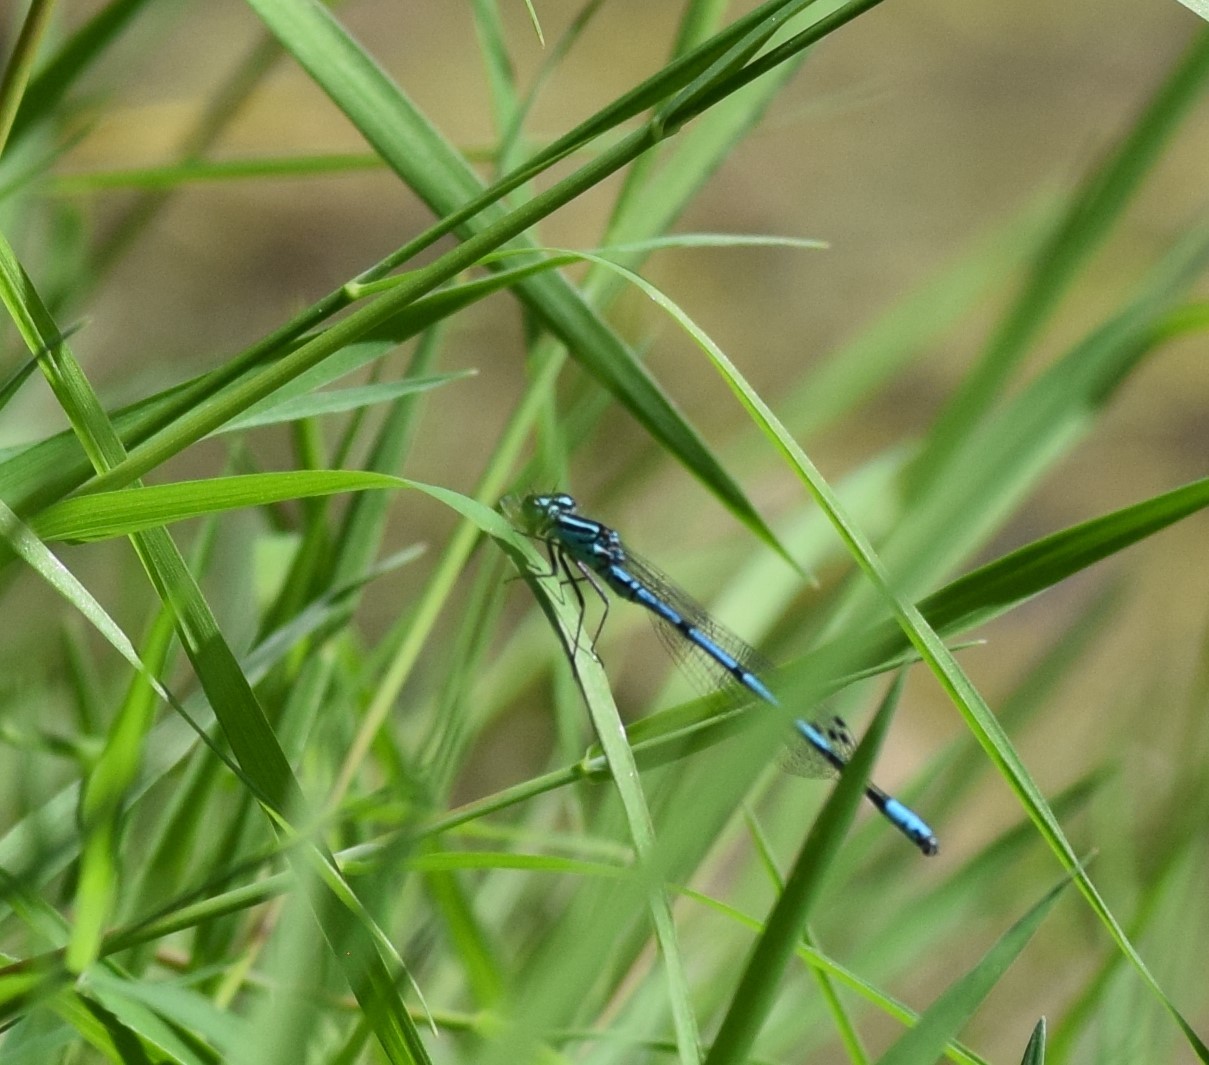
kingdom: Animalia
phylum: Arthropoda
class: Insecta
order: Odonata
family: Coenagrionidae
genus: Coenagrion
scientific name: Coenagrion puella
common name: Azure damselfly
